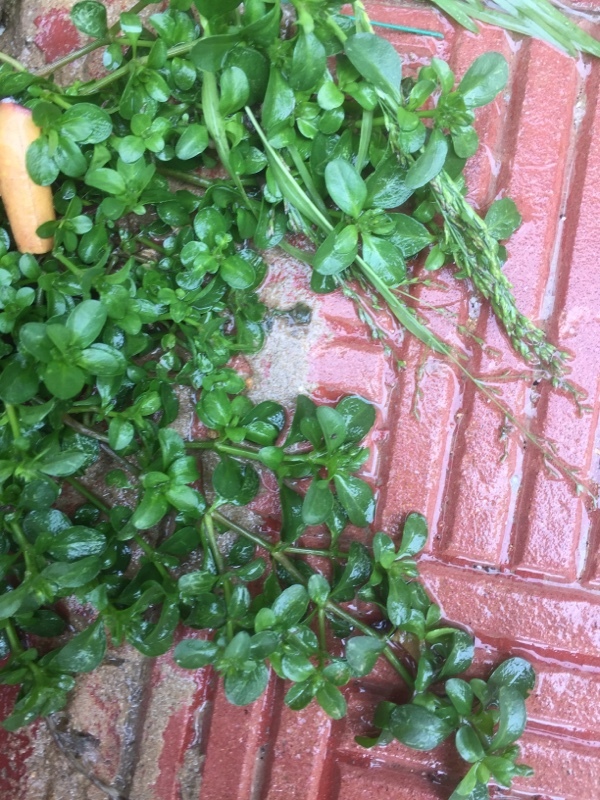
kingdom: Plantae
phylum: Tracheophyta
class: Magnoliopsida
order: Caryophyllales
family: Caryophyllaceae
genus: Polycarpon
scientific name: Polycarpon tetraphyllum
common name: Four-leaved all-seed
